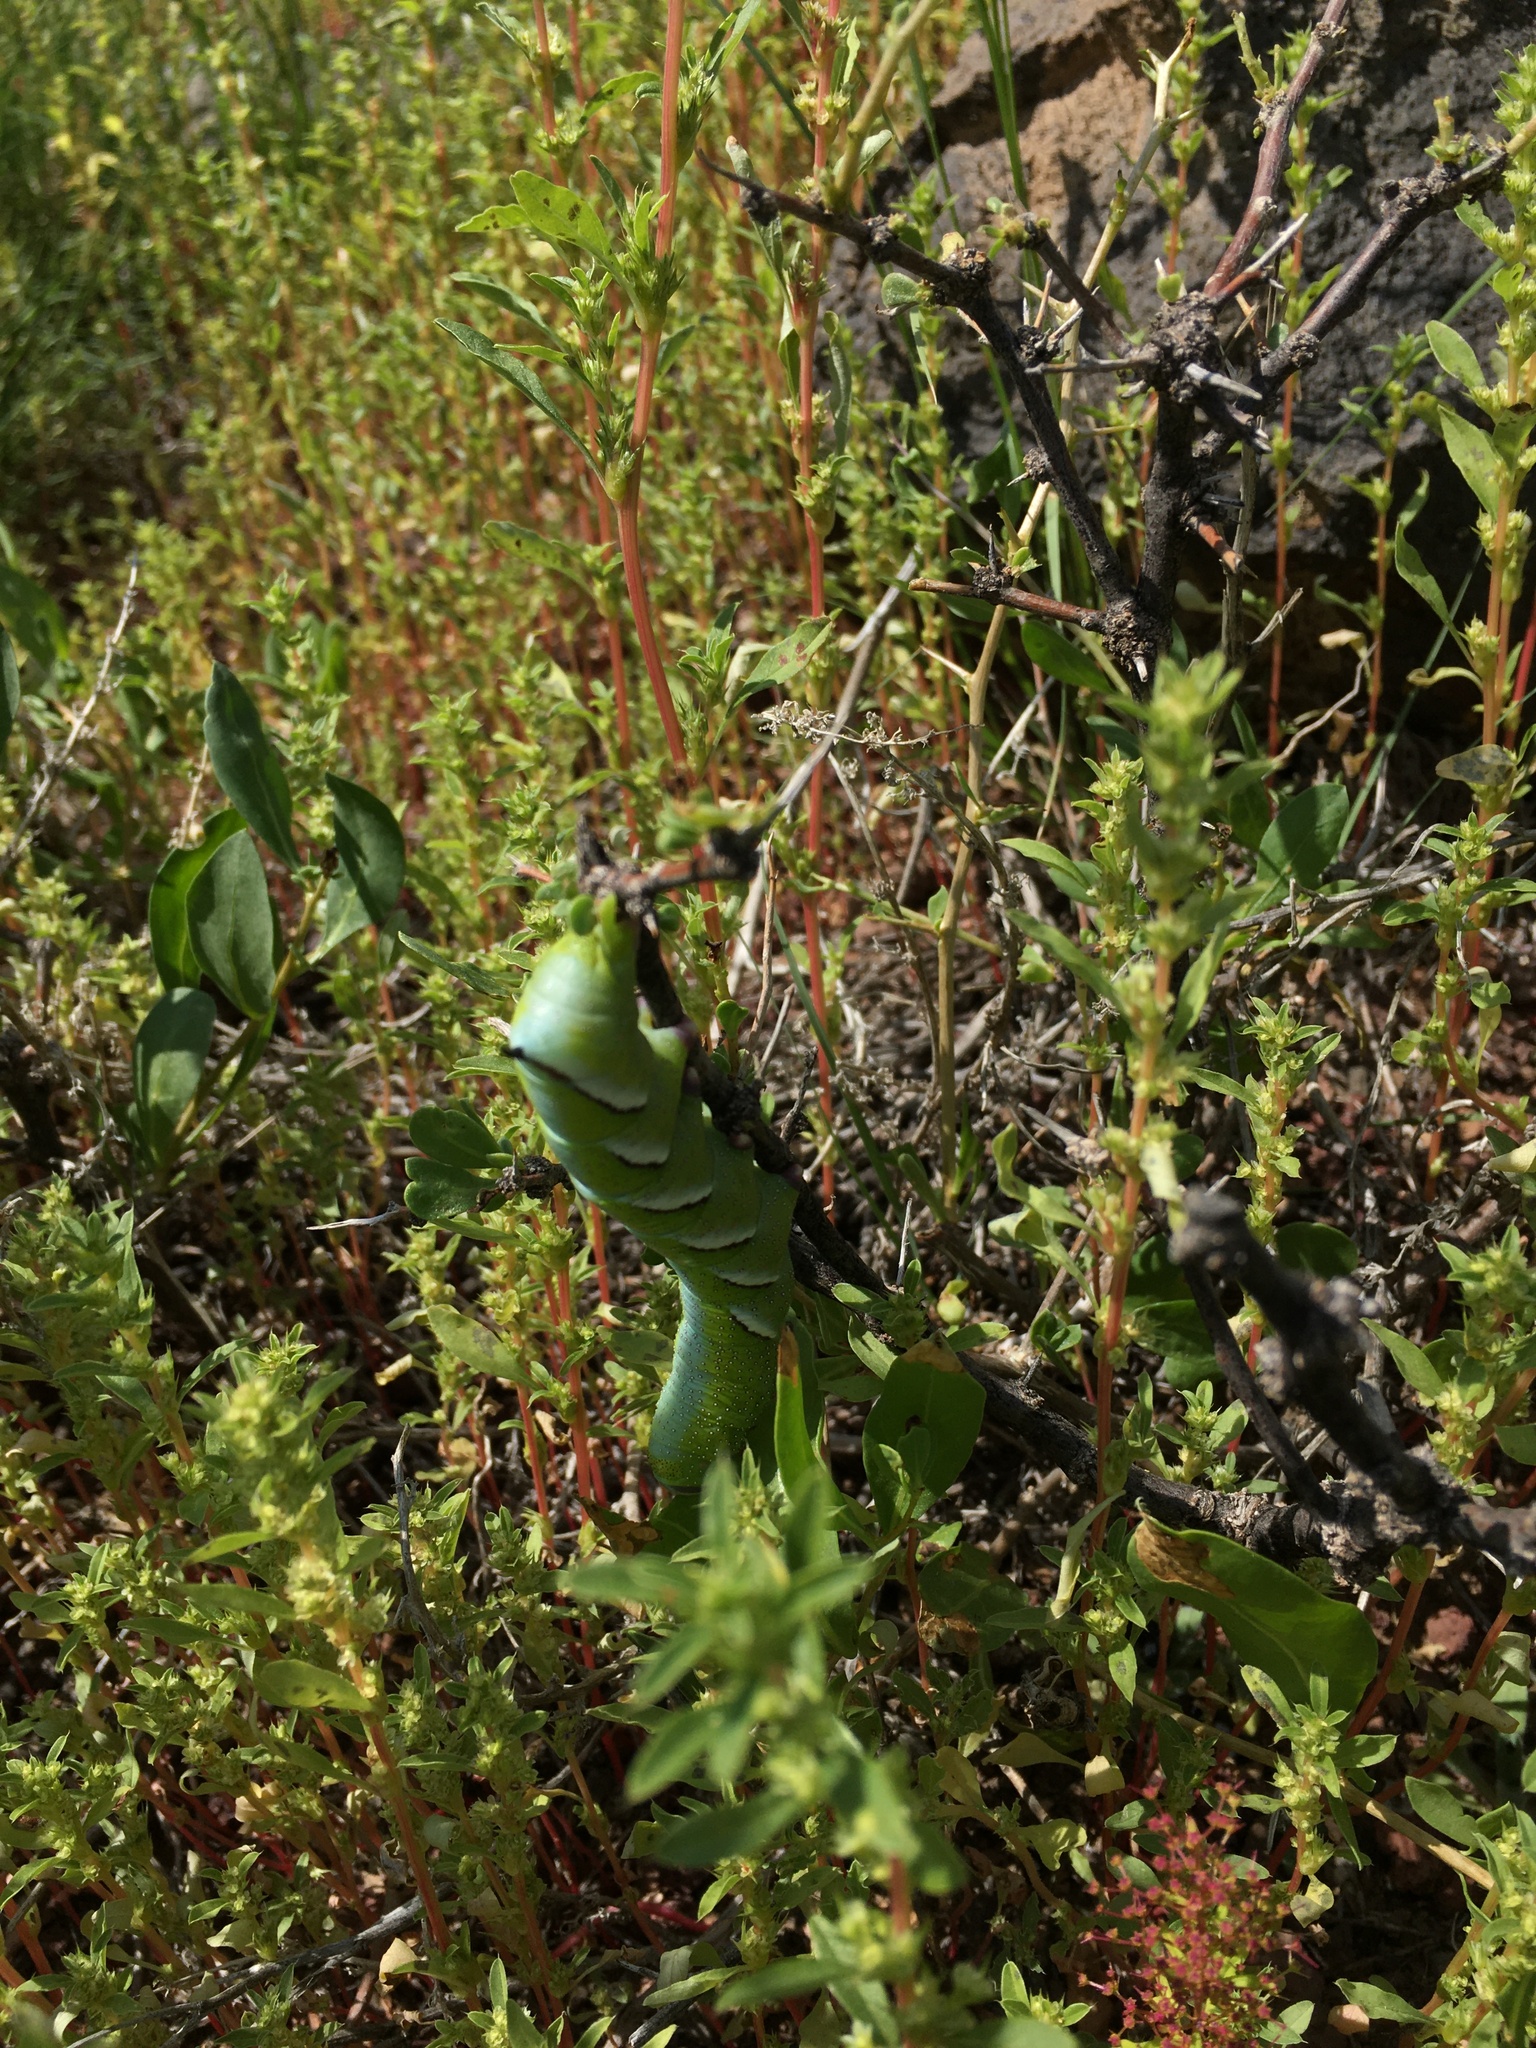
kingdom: Animalia
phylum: Arthropoda
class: Insecta
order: Lepidoptera
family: Sphingidae
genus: Sagenosoma
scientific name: Sagenosoma elsa
